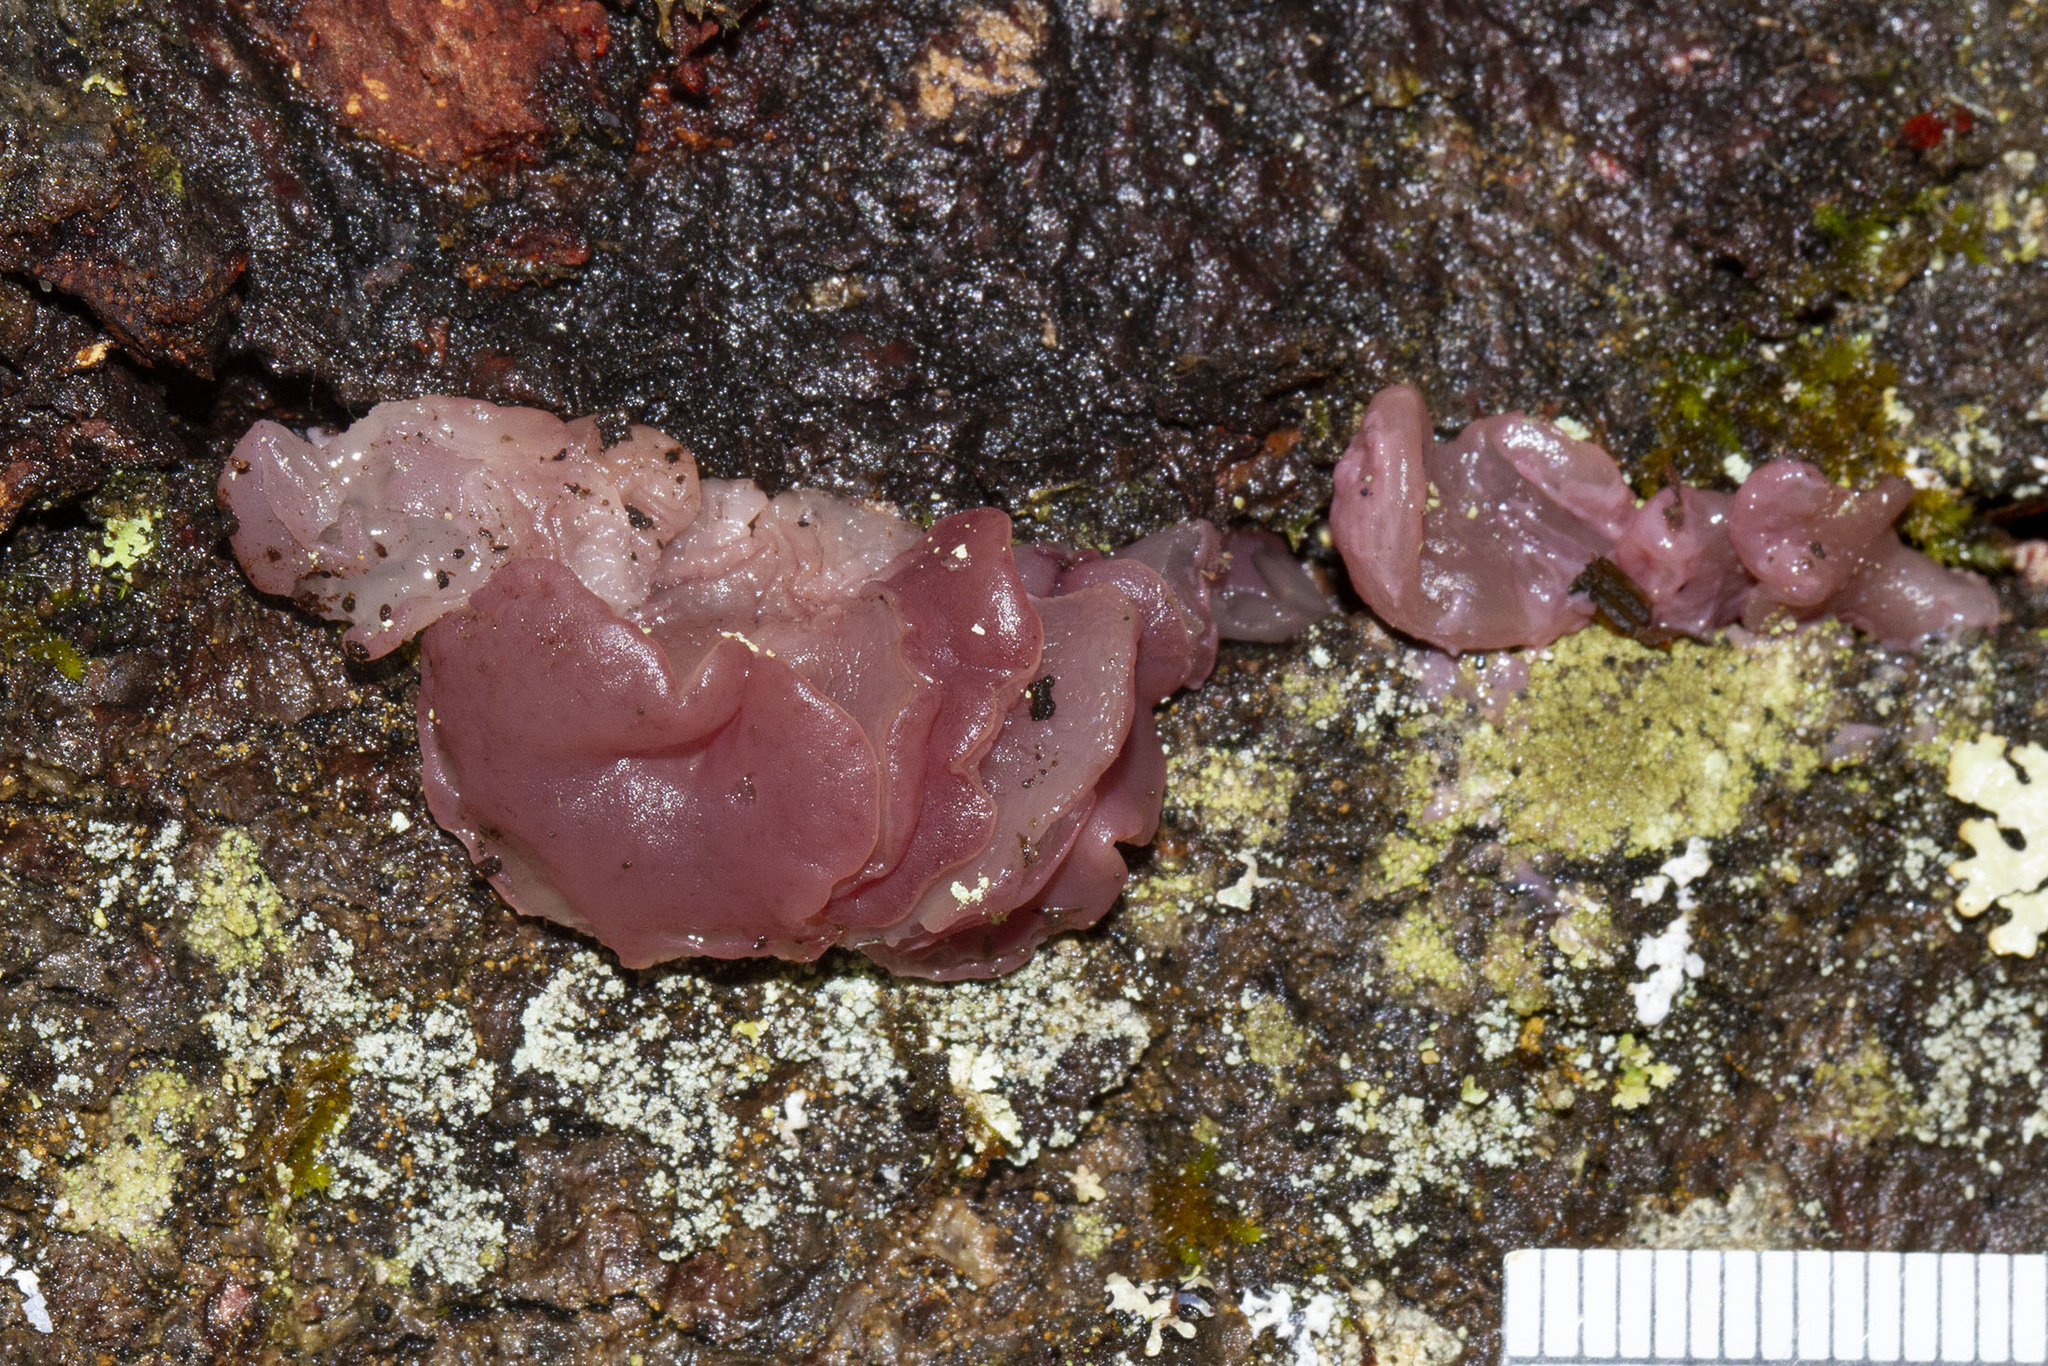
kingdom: Fungi
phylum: Ascomycota
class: Leotiomycetes
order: Helotiales
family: Gelatinodiscaceae
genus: Ascocoryne
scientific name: Ascocoryne sarcoides
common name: Purple jellydisc
